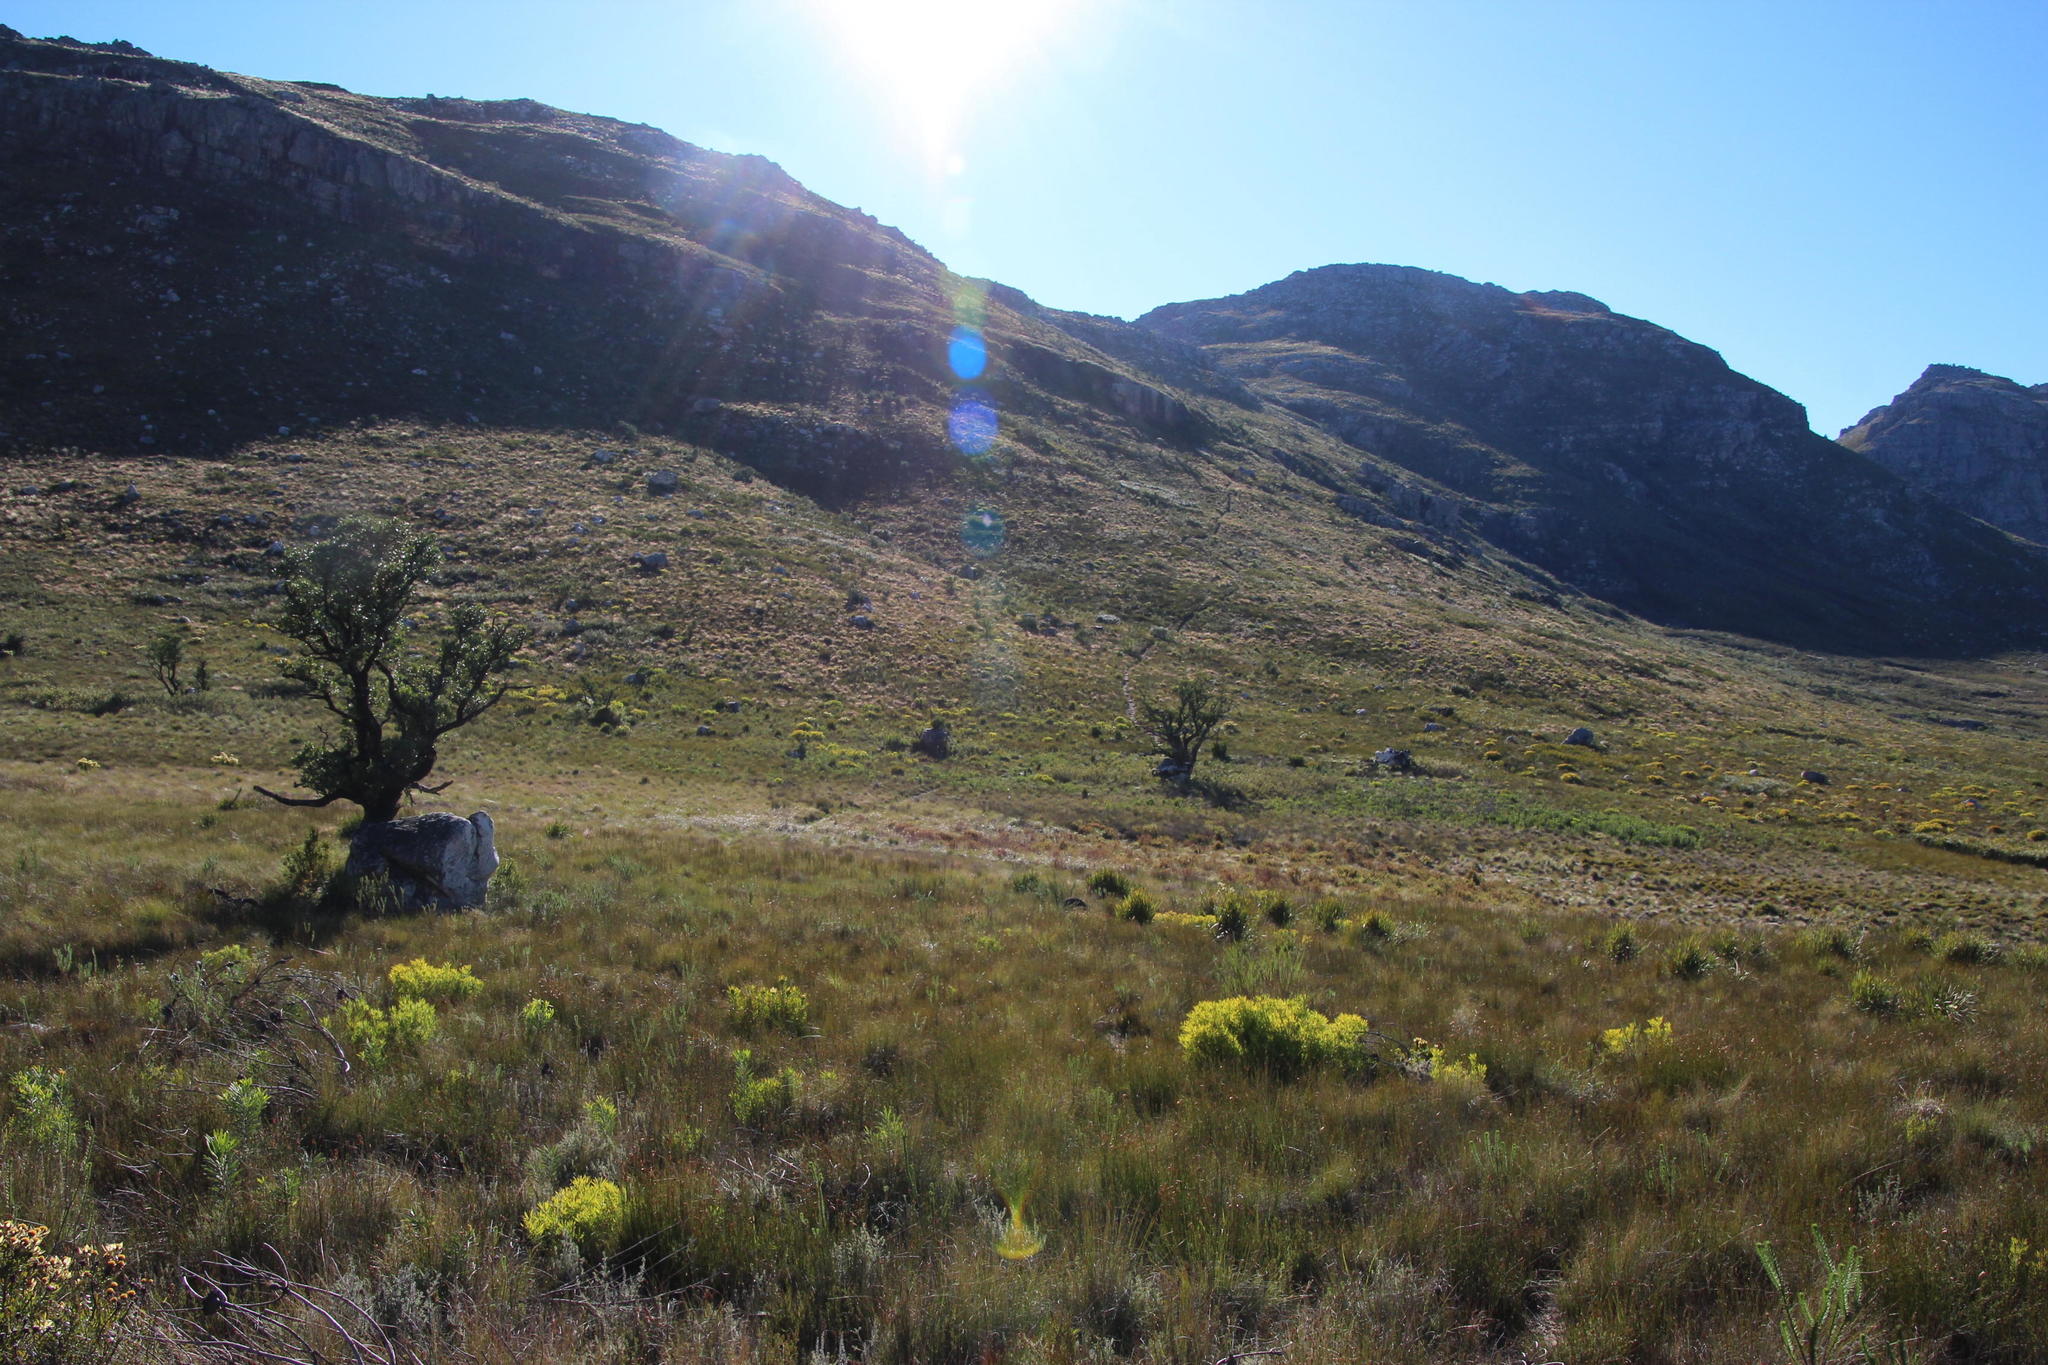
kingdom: Plantae
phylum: Tracheophyta
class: Magnoliopsida
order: Celastrales
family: Celastraceae
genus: Gymnosporia
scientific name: Gymnosporia laurina
